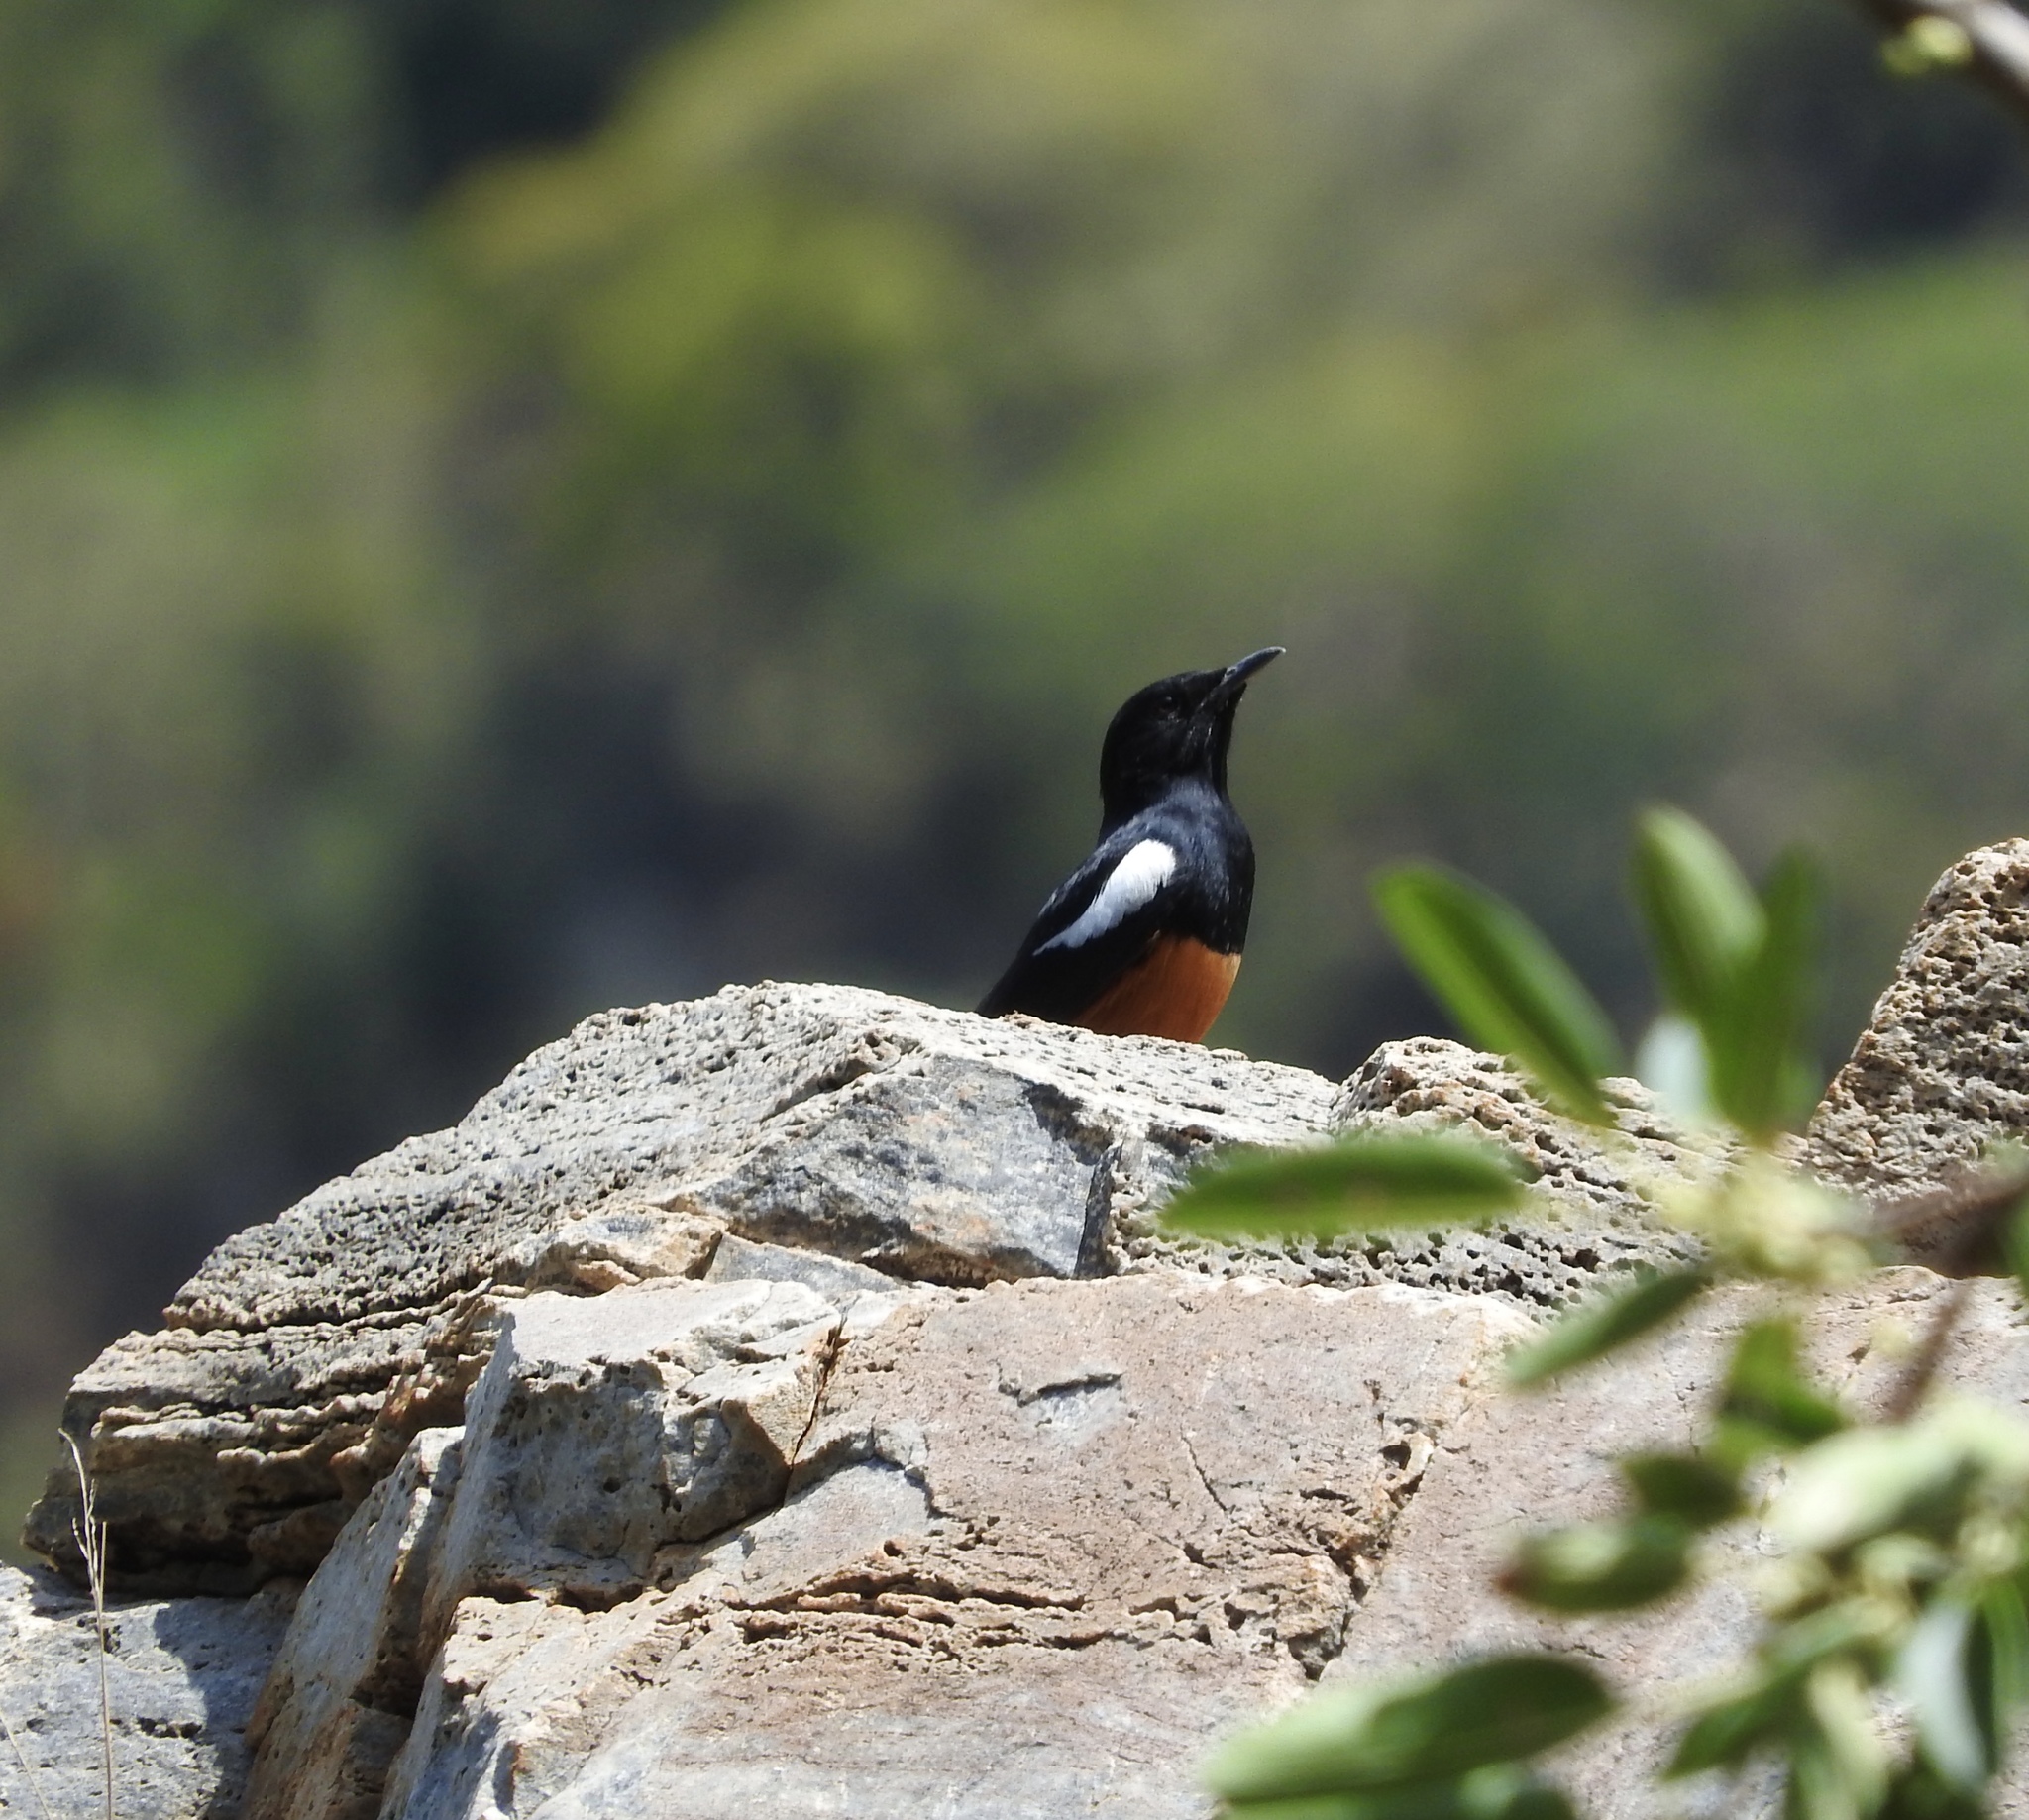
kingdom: Animalia
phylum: Chordata
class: Aves
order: Passeriformes
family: Muscicapidae
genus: Thamnolaea
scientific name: Thamnolaea cinnamomeiventris
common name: Mocking cliff chat
